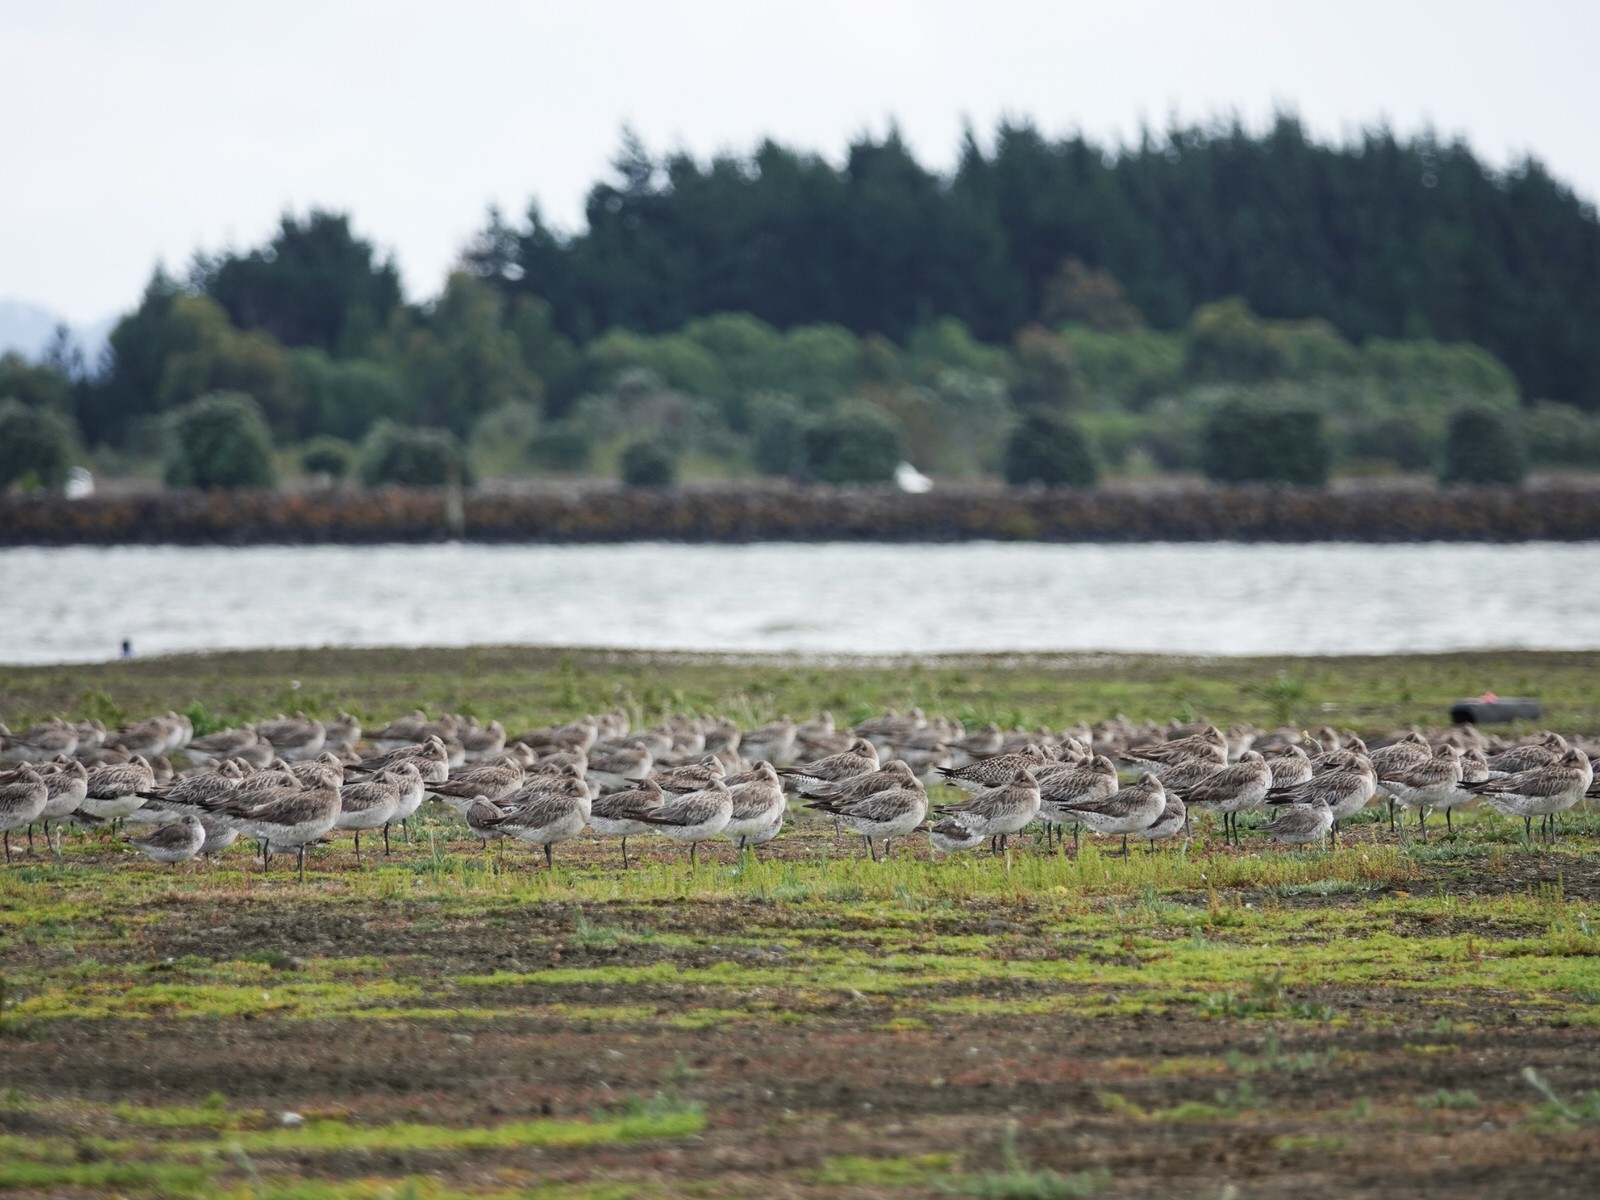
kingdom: Animalia
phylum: Chordata
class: Aves
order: Charadriiformes
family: Scolopacidae
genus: Limosa
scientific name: Limosa lapponica
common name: Bar-tailed godwit
